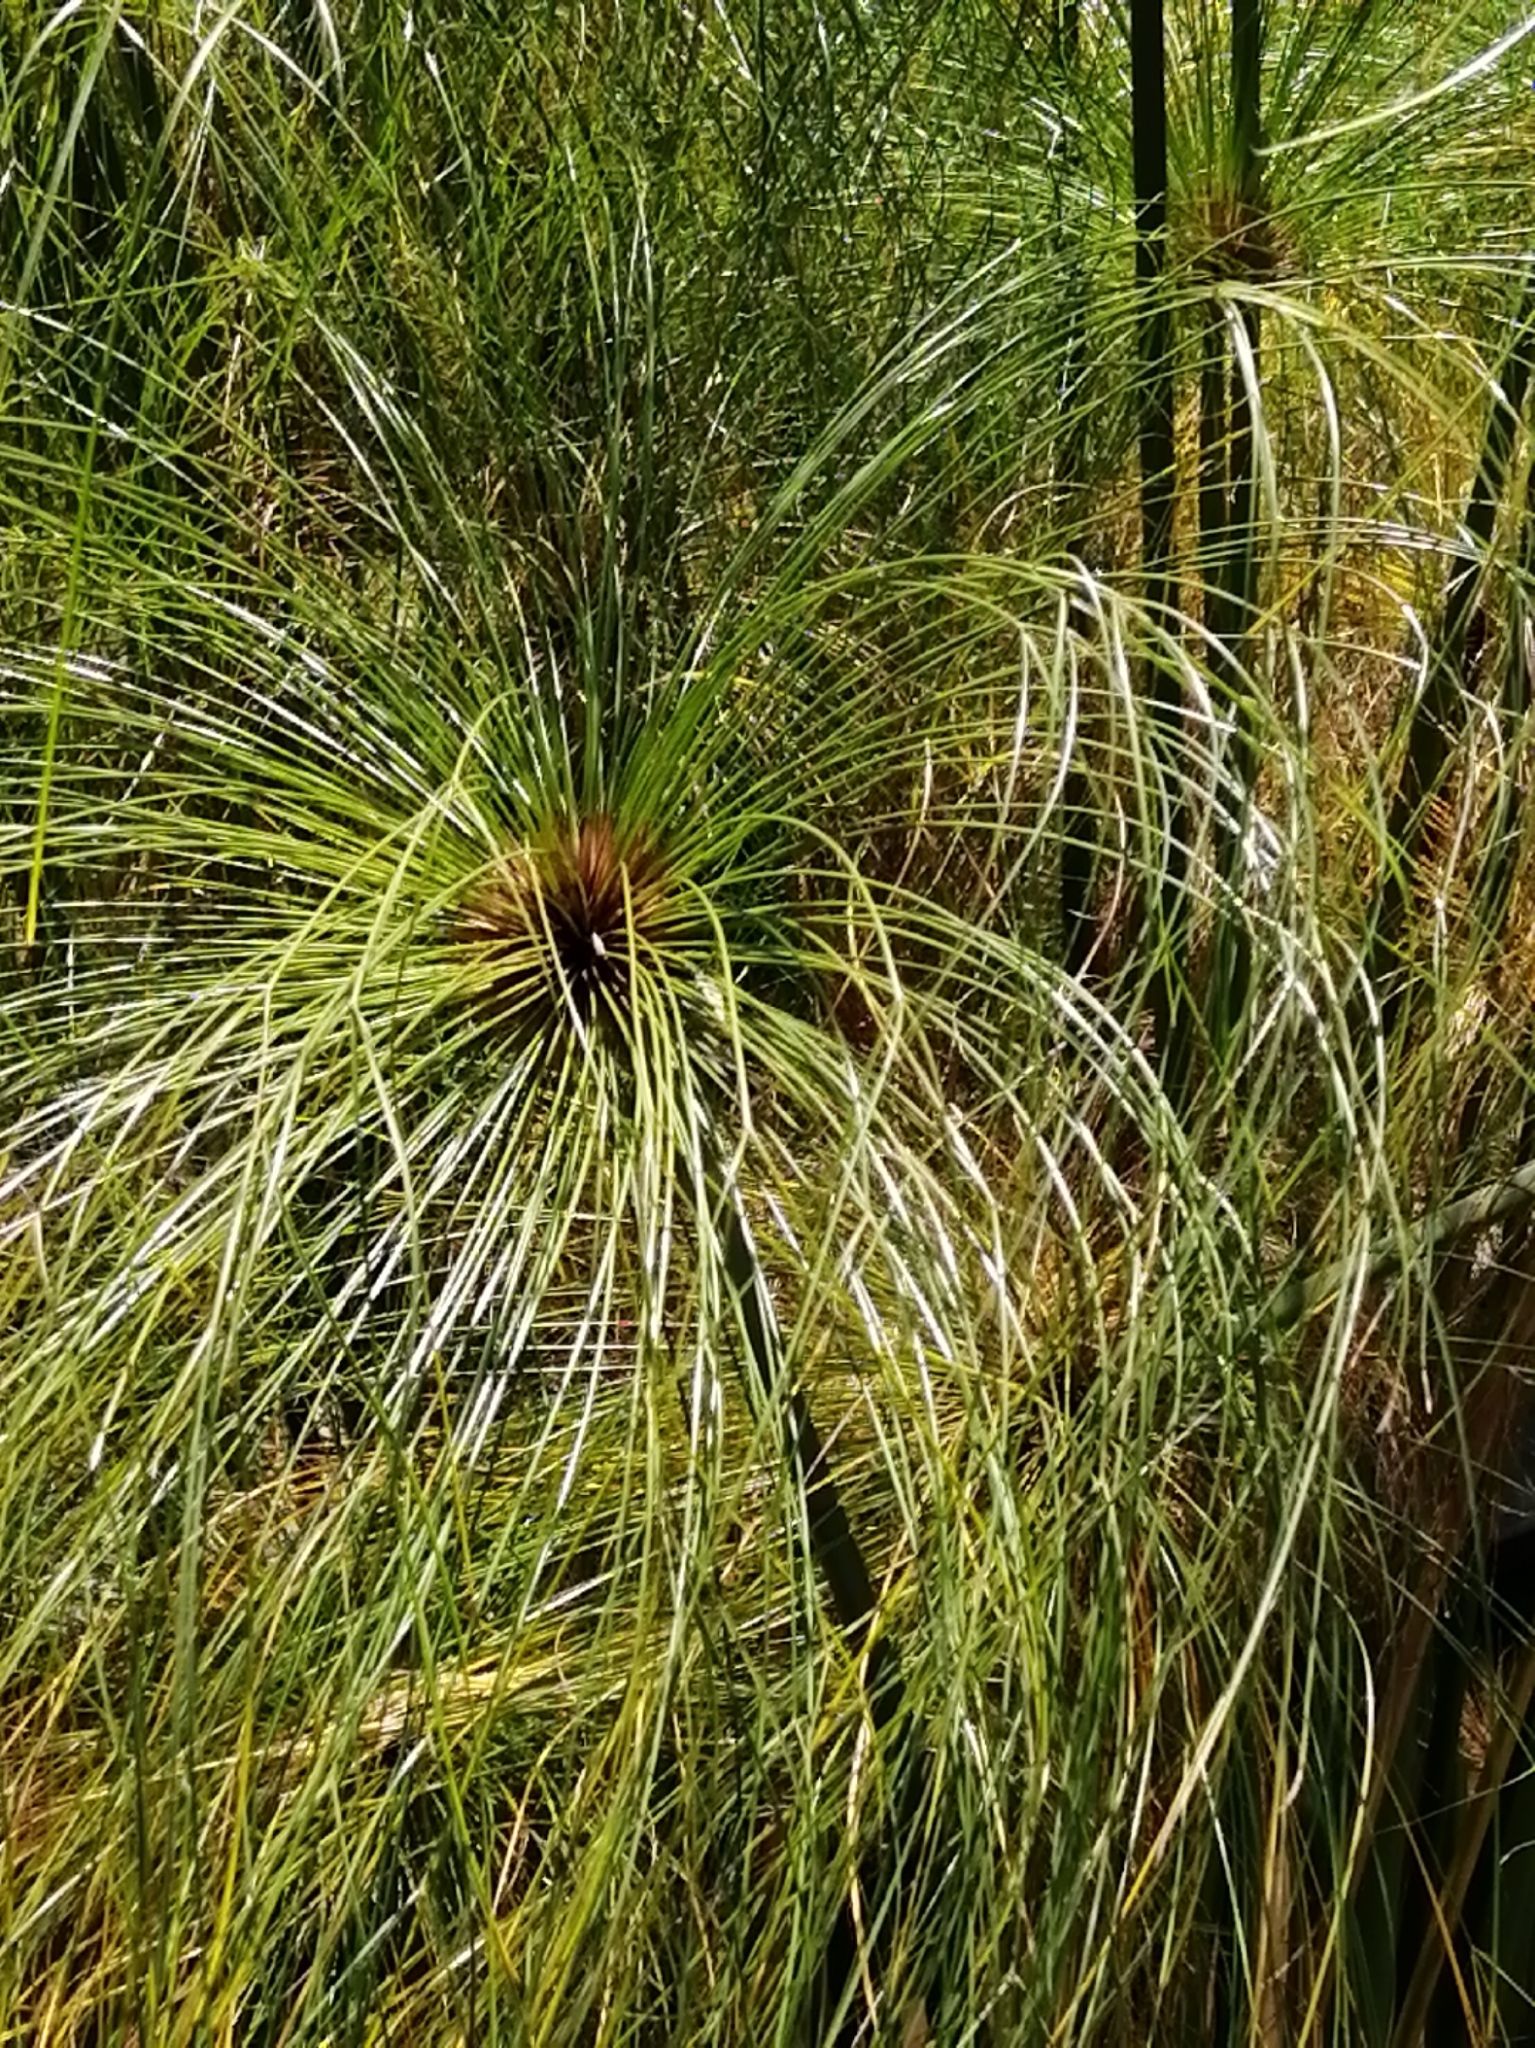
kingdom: Plantae
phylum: Tracheophyta
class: Liliopsida
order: Poales
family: Cyperaceae
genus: Cyperus
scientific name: Cyperus papyrus
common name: Papyrus
